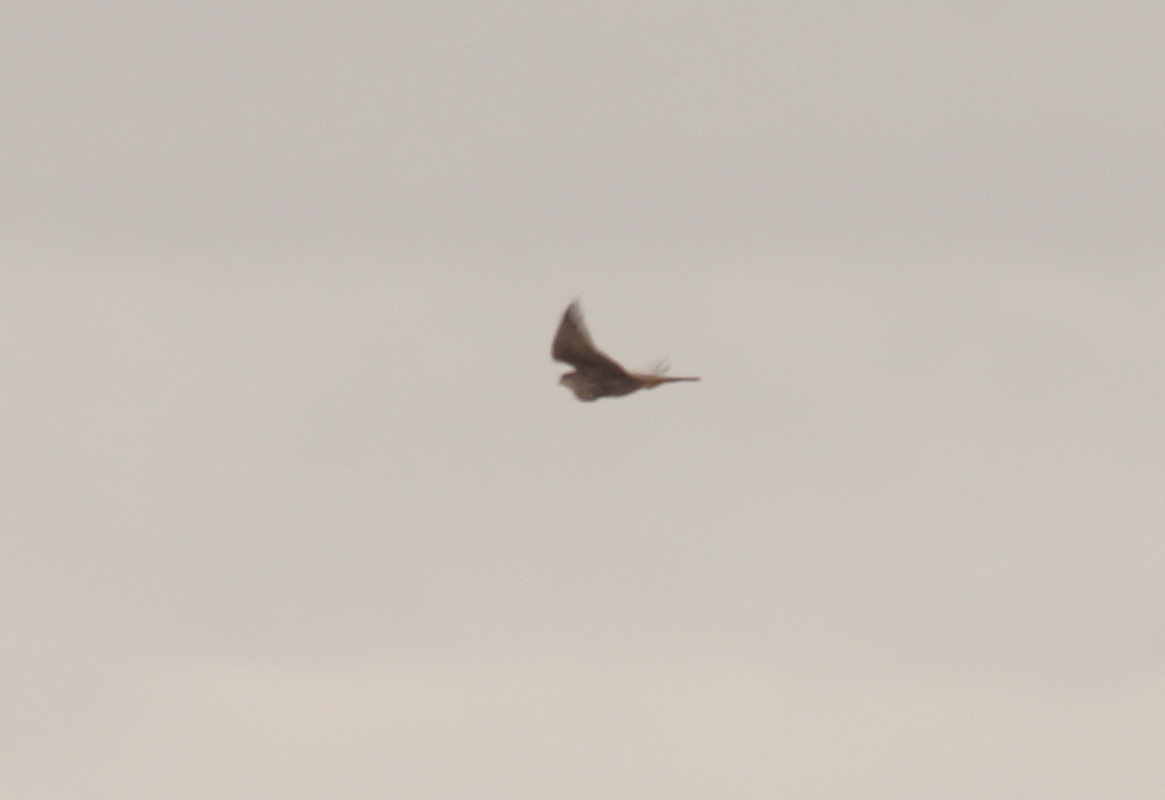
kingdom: Animalia
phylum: Chordata
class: Aves
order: Falconiformes
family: Falconidae
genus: Falco
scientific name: Falco cherrug
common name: Saker falcon
